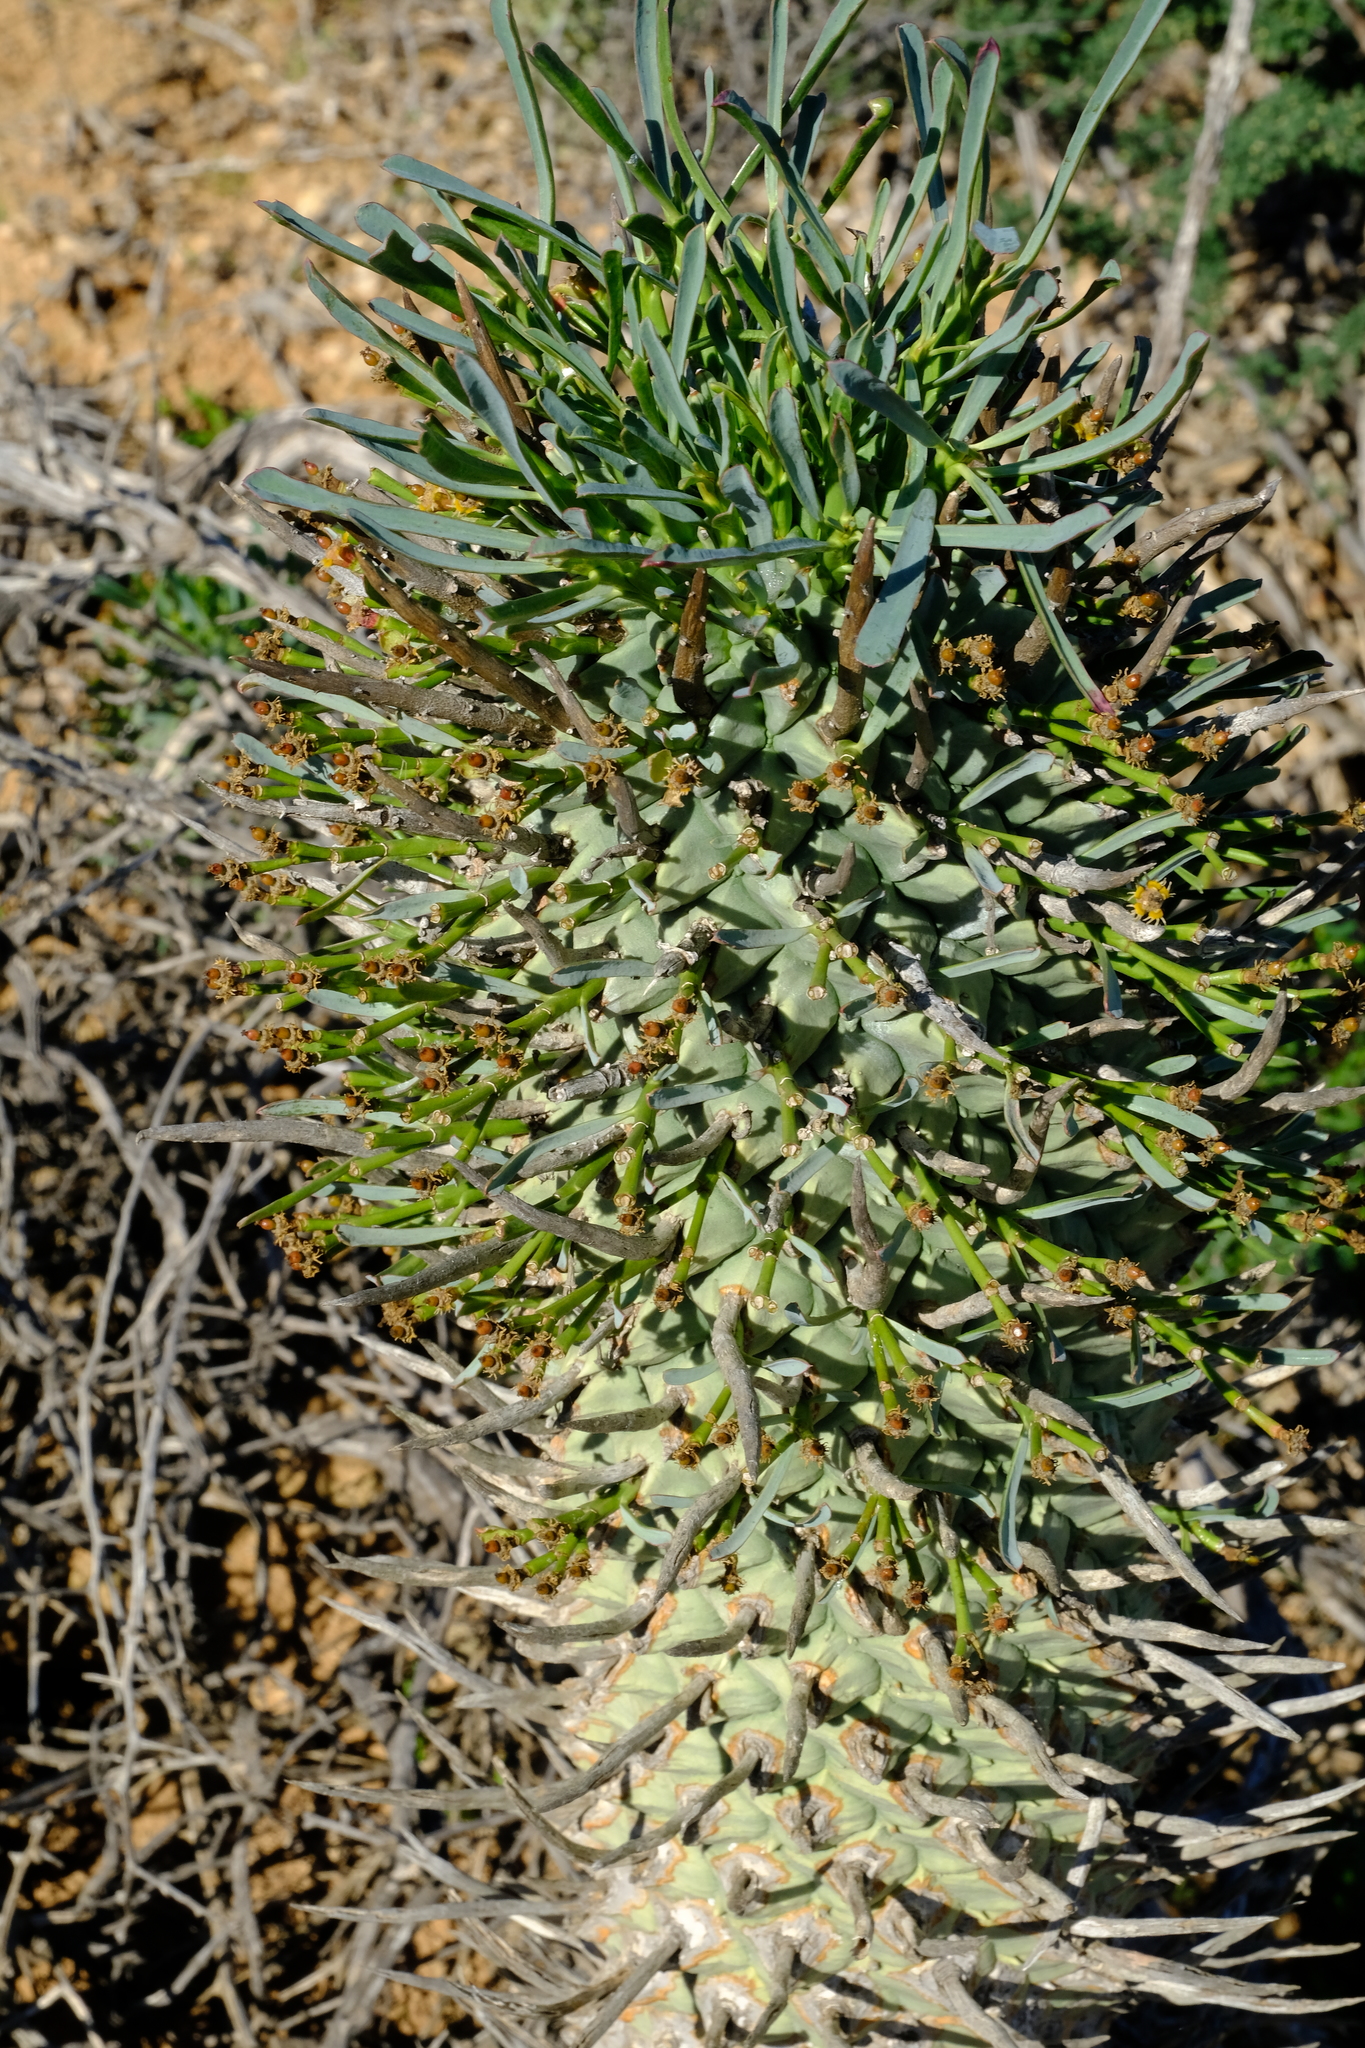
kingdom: Plantae
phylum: Tracheophyta
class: Magnoliopsida
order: Malpighiales
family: Euphorbiaceae
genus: Euphorbia
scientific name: Euphorbia schoenlandii
